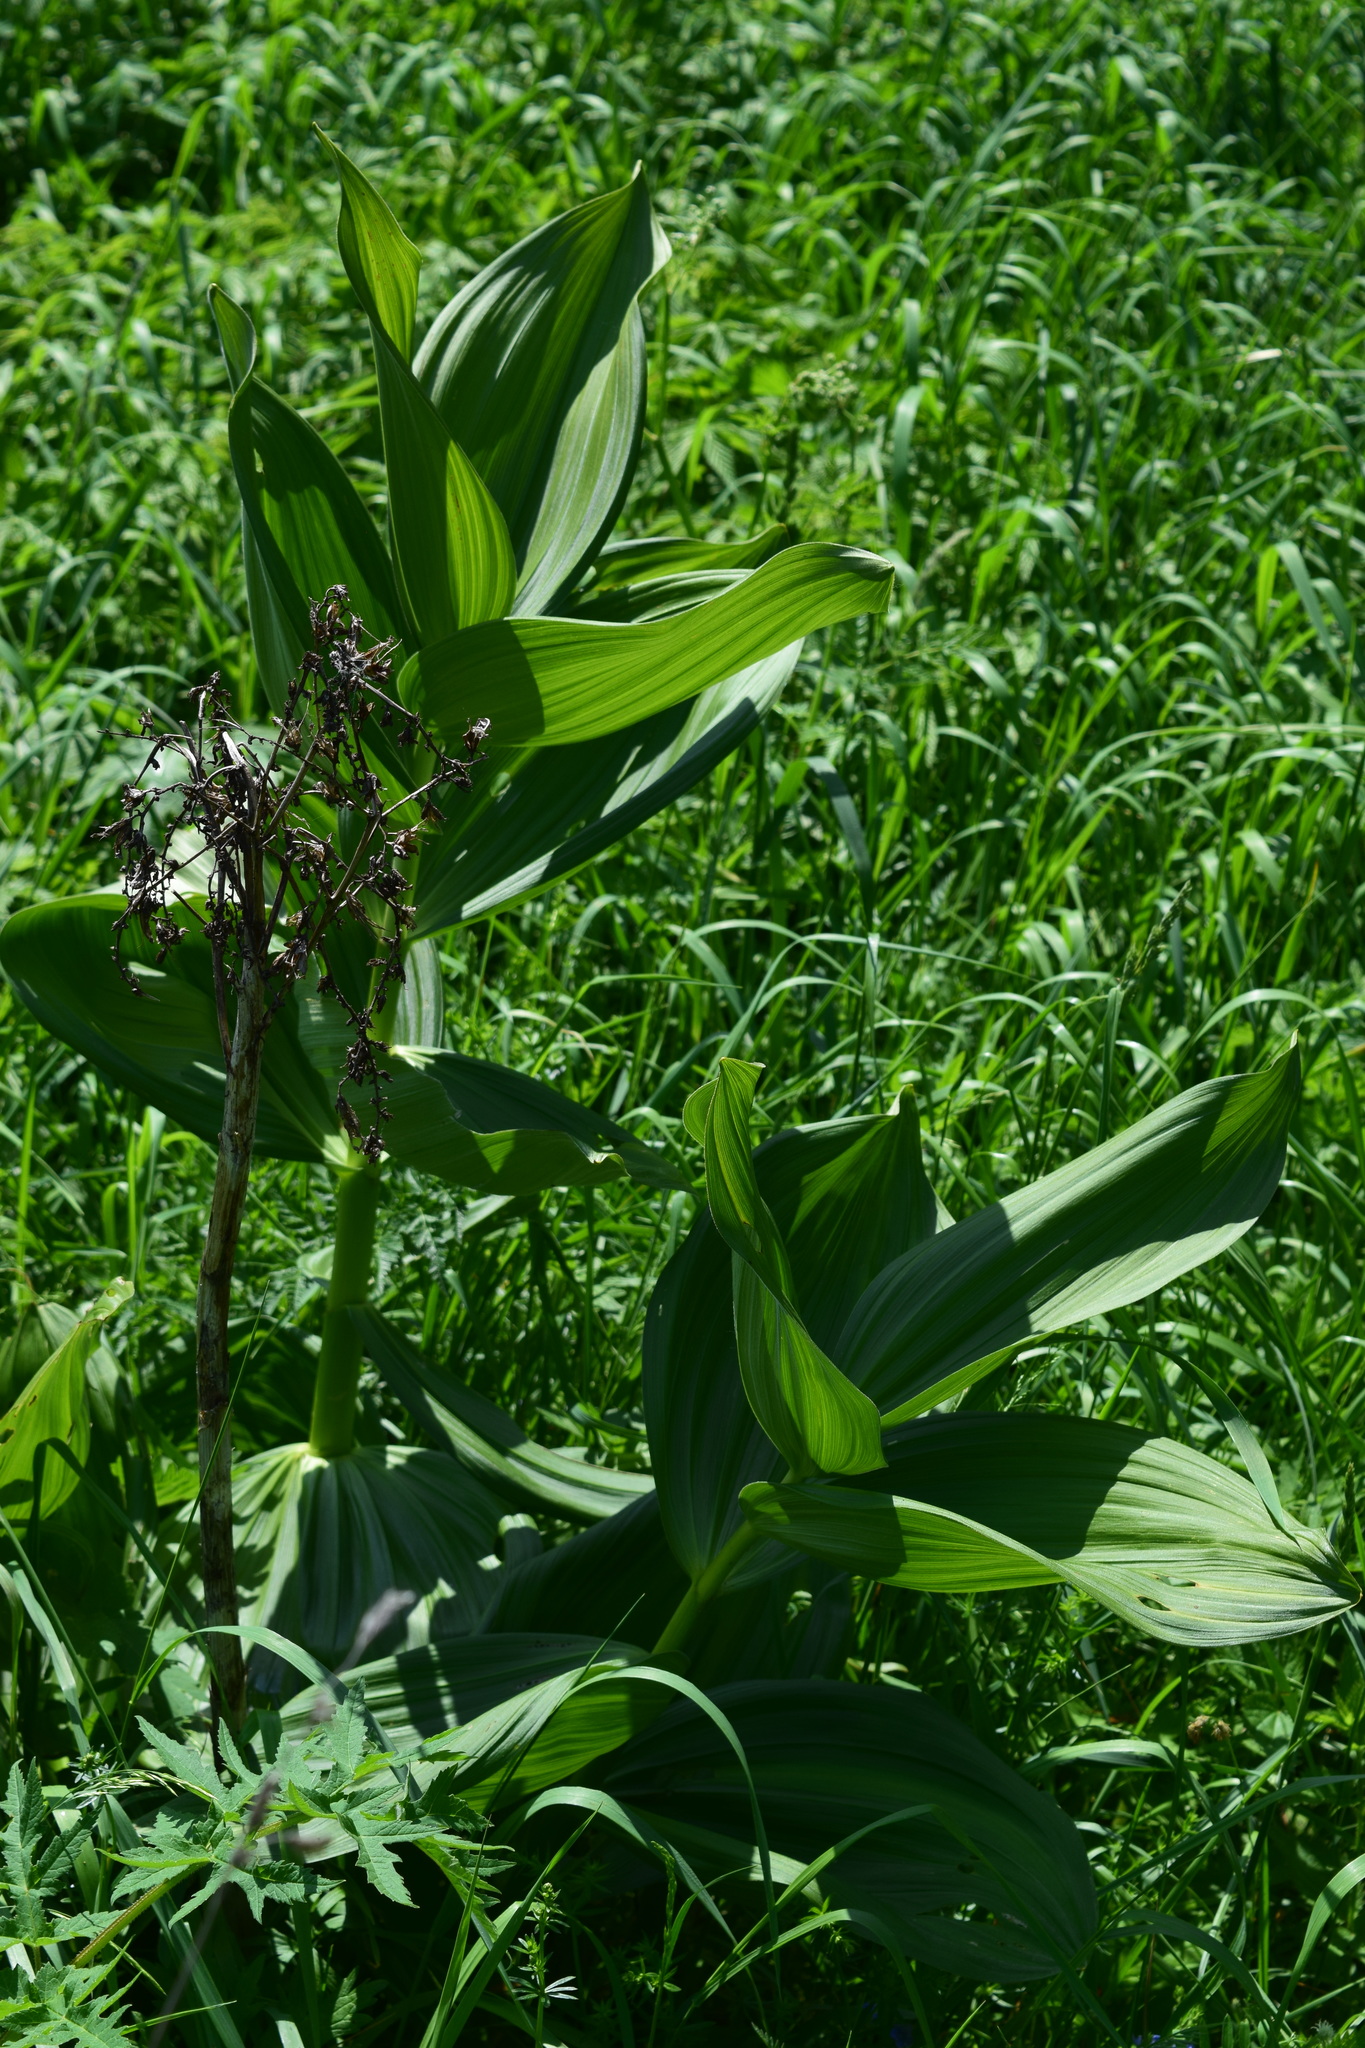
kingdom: Plantae
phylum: Tracheophyta
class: Liliopsida
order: Liliales
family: Melanthiaceae
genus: Veratrum
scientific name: Veratrum lobelianum
